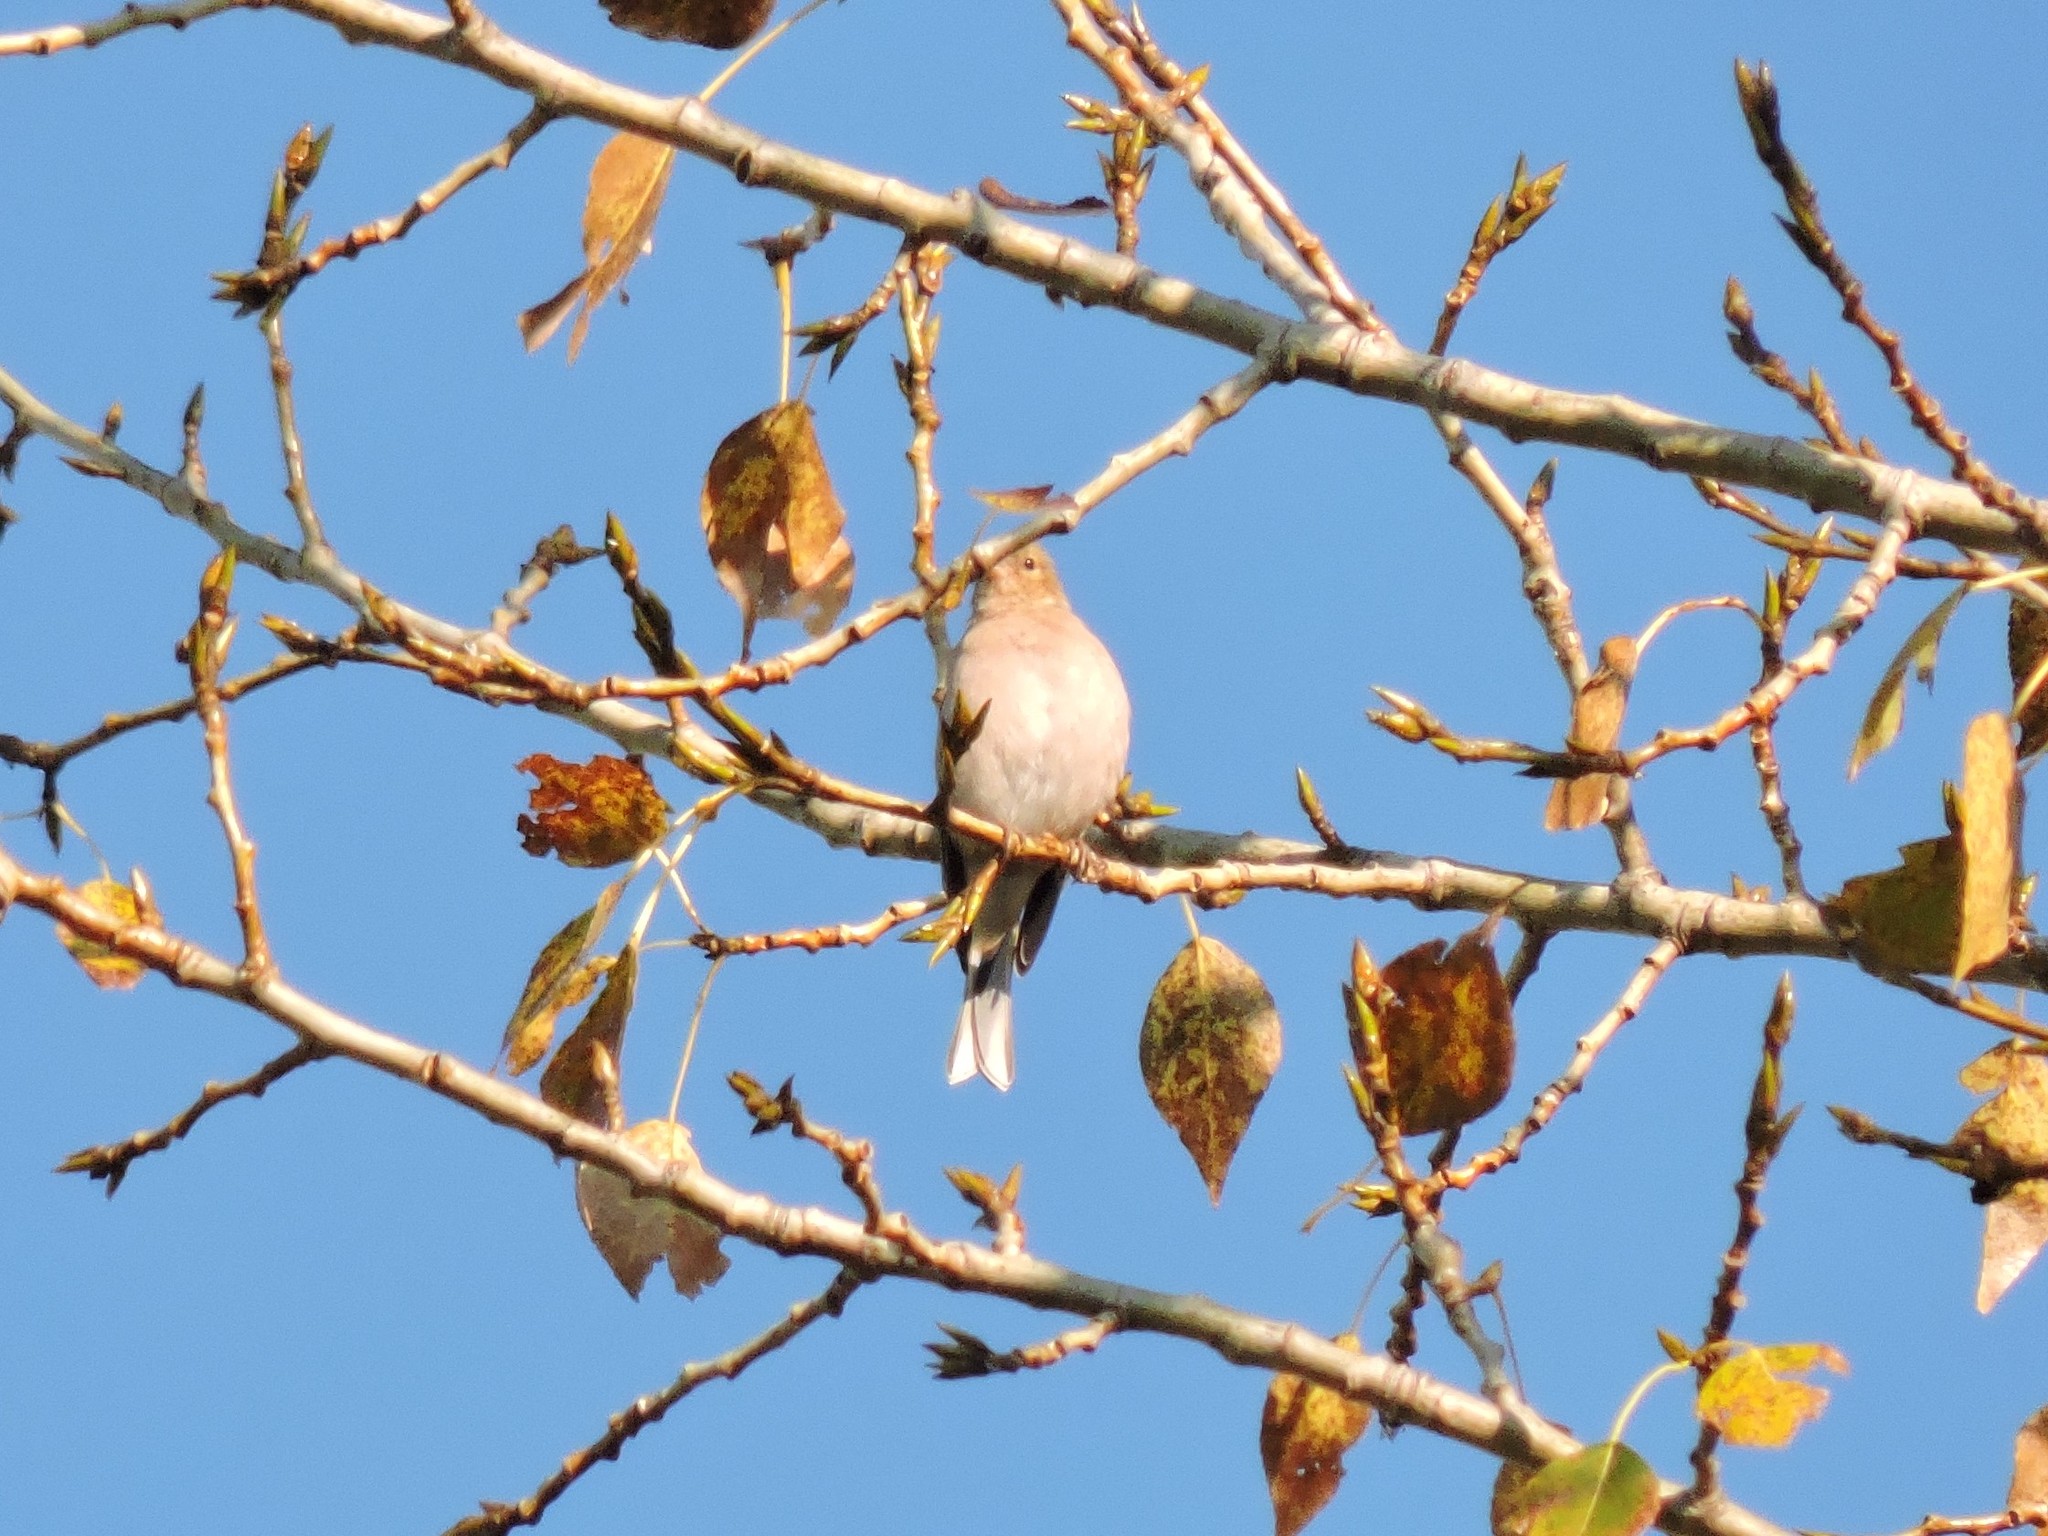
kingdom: Animalia
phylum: Chordata
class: Aves
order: Passeriformes
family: Fringillidae
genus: Fringilla
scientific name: Fringilla coelebs
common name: Common chaffinch
